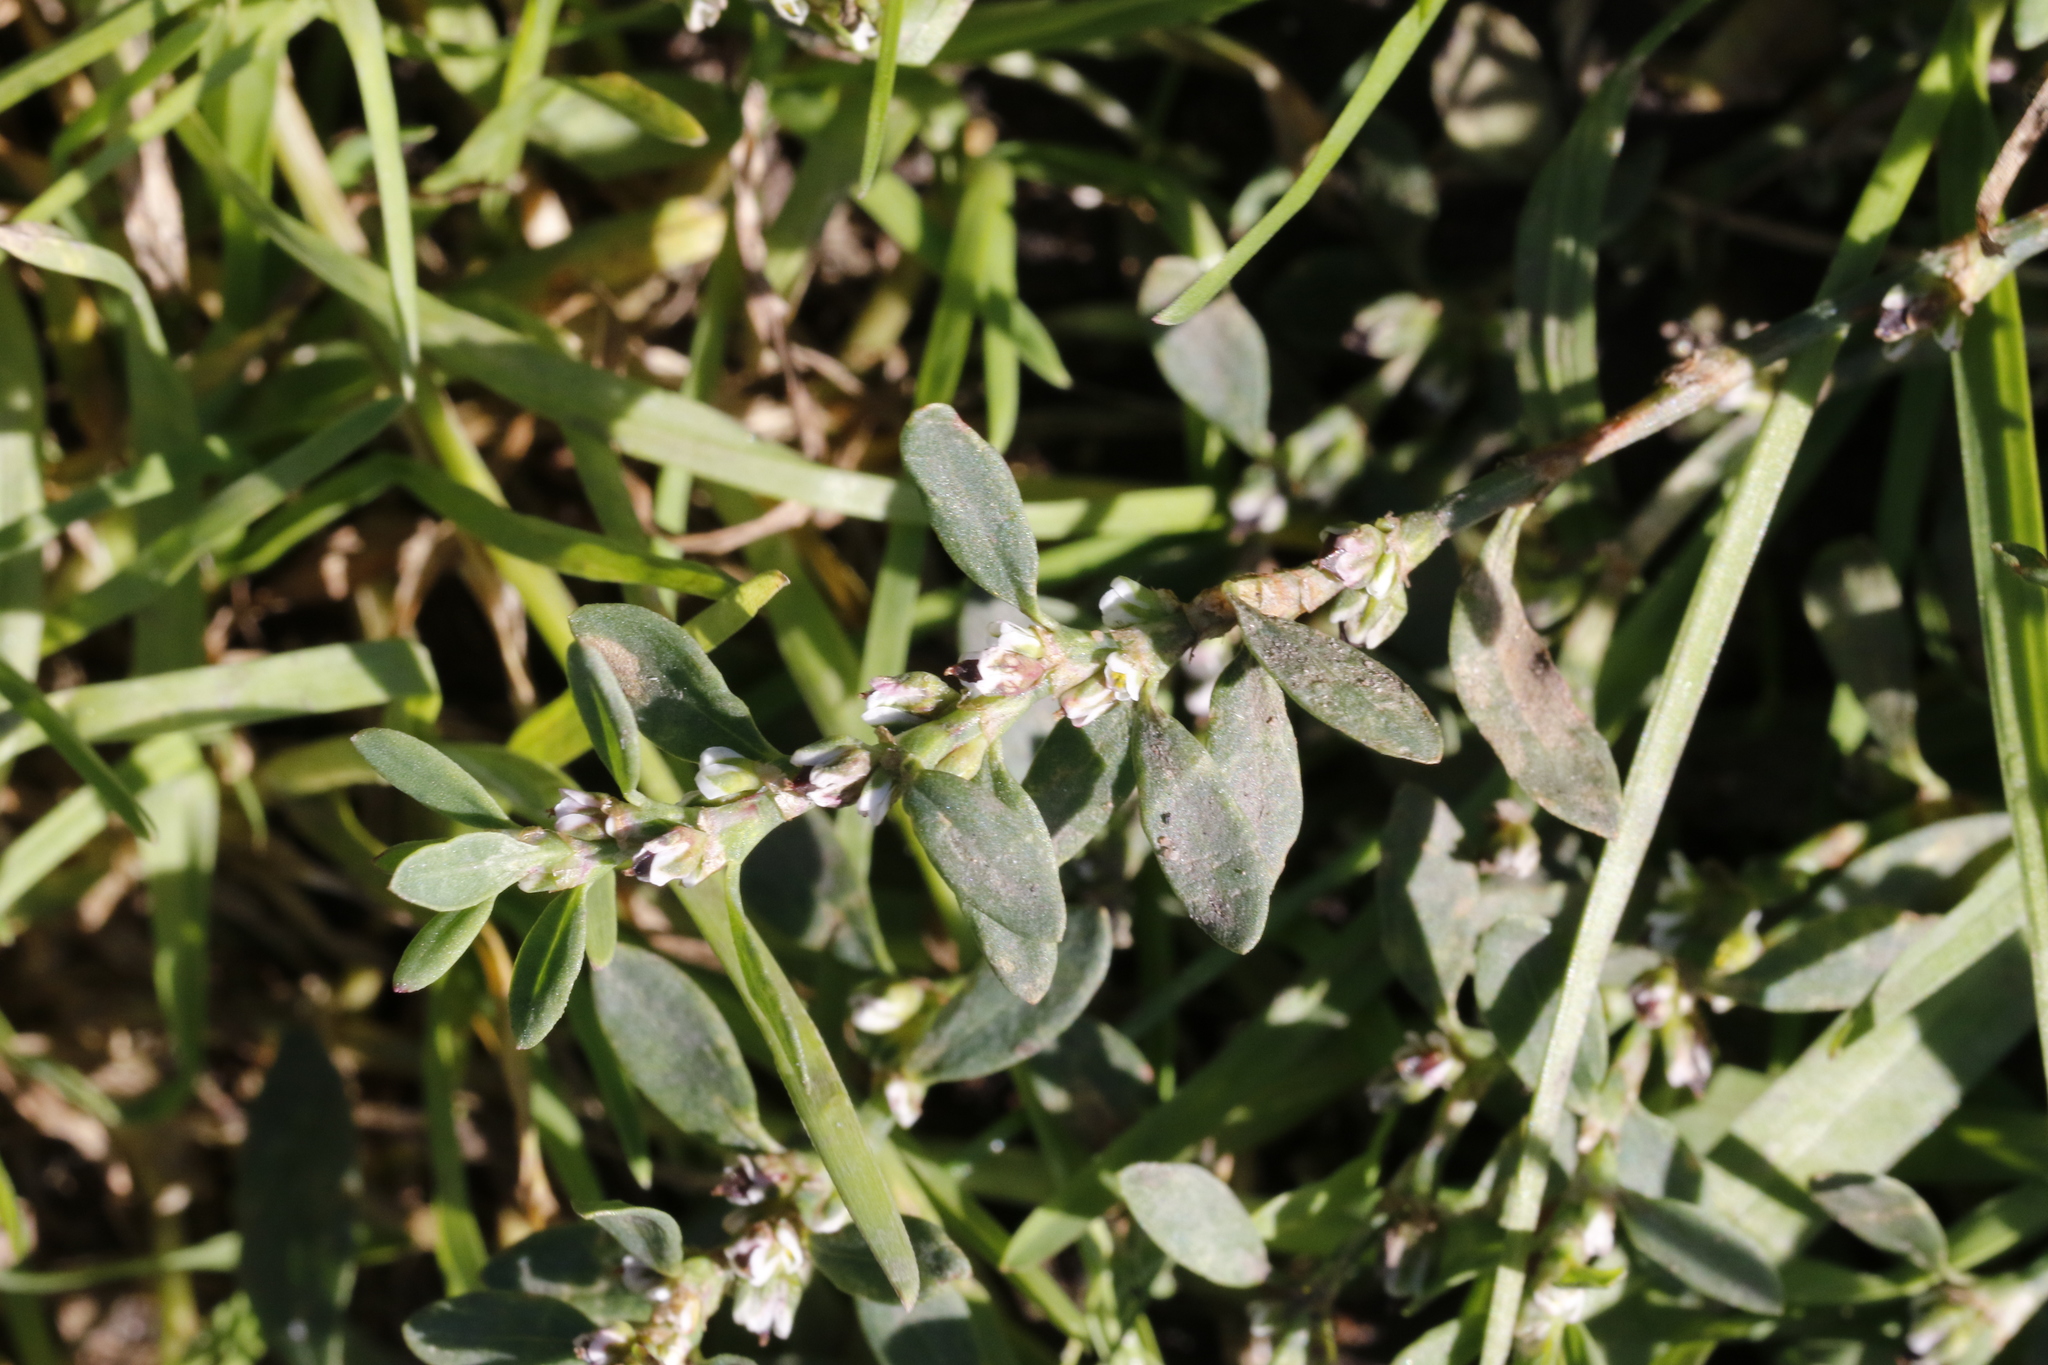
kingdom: Plantae
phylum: Tracheophyta
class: Magnoliopsida
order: Caryophyllales
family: Polygonaceae
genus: Polygonum
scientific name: Polygonum aviculare
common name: Prostrate knotweed
